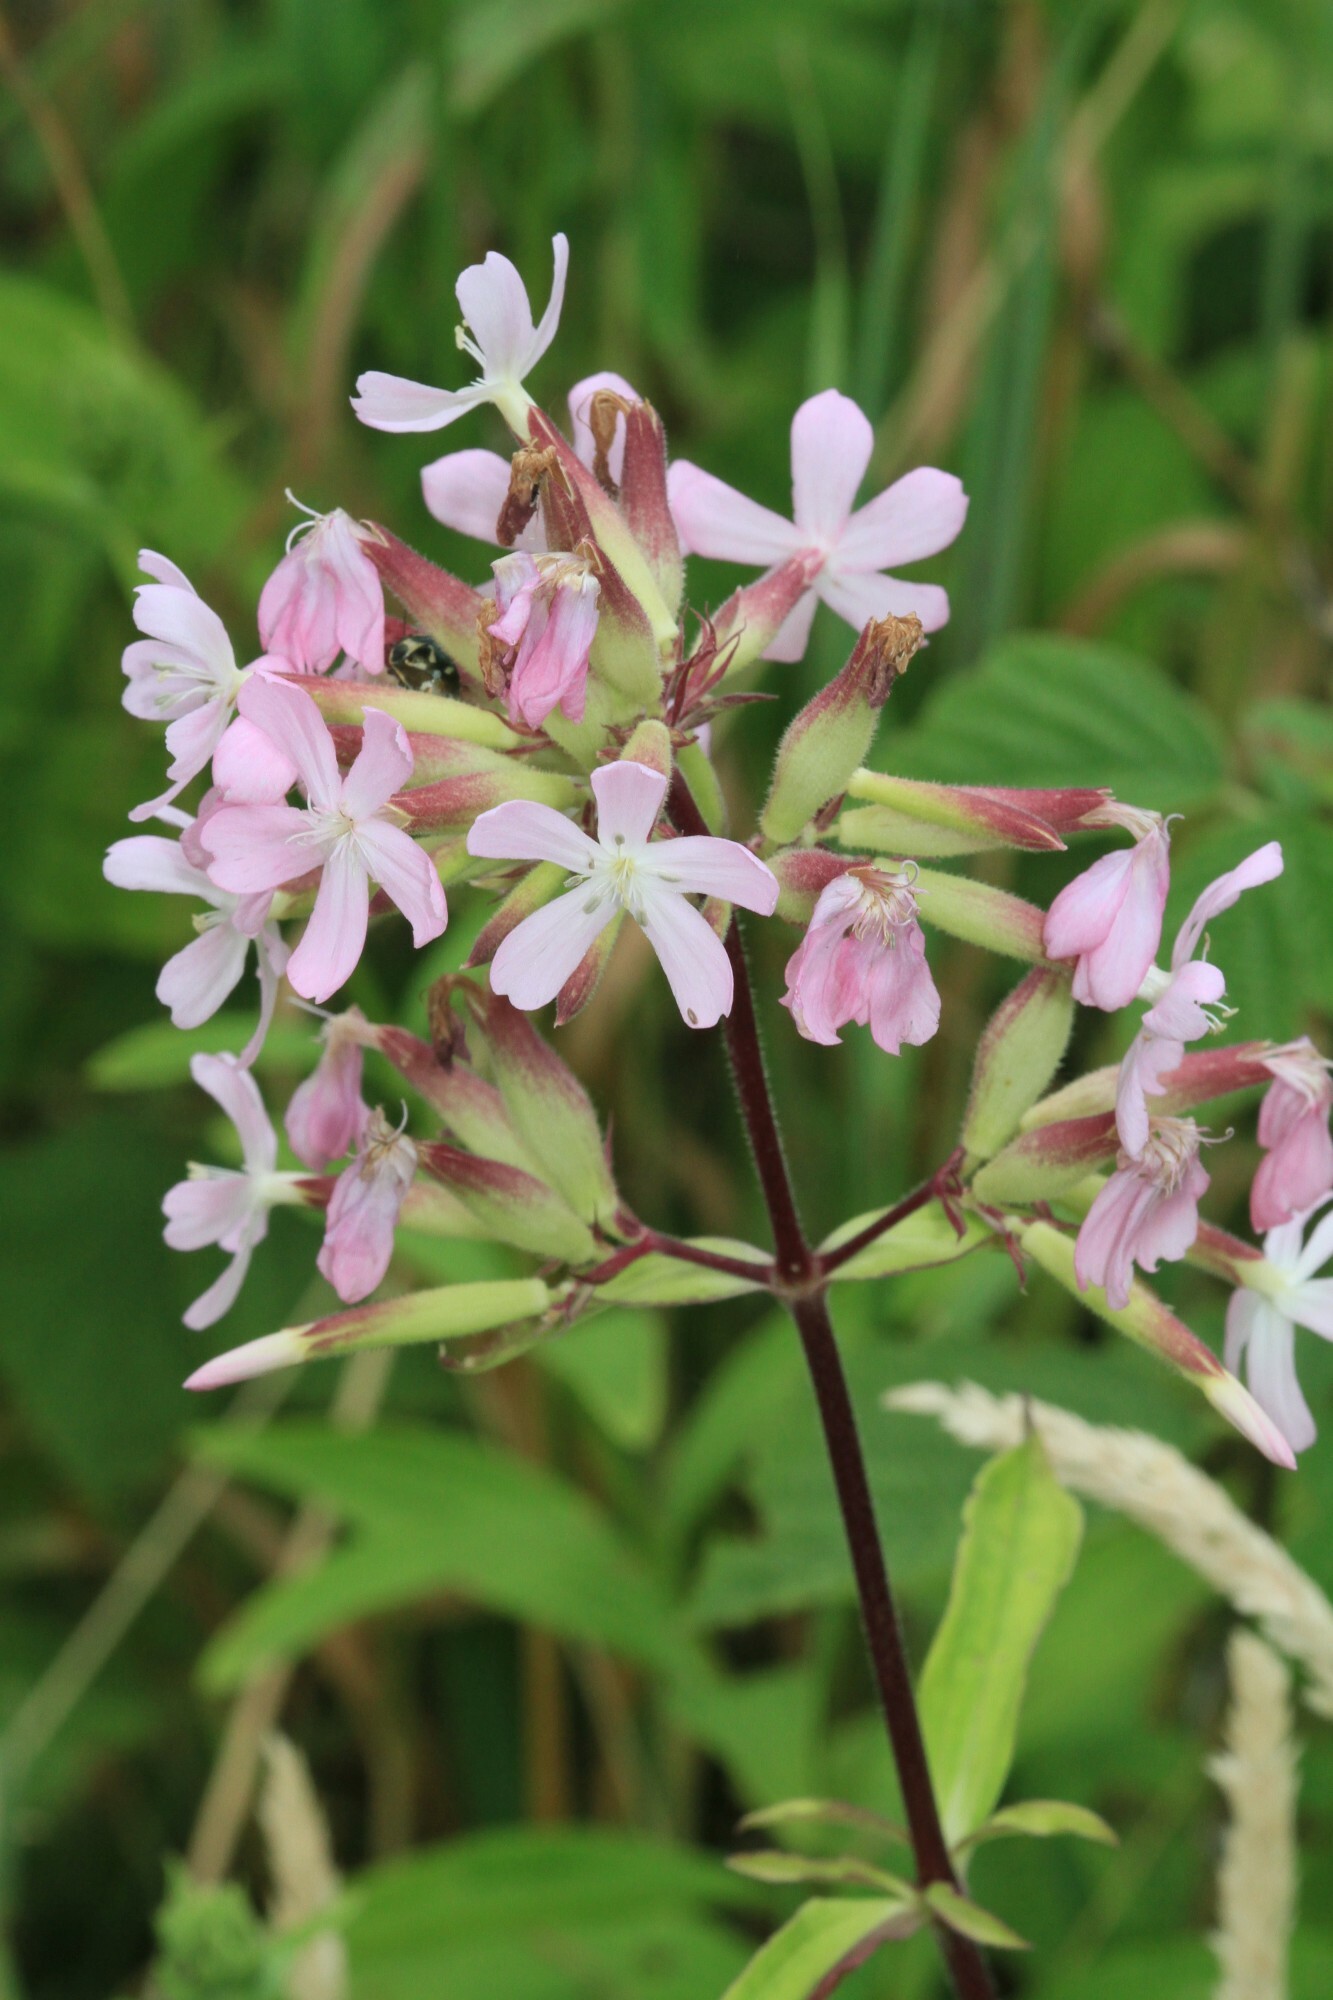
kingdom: Plantae
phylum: Tracheophyta
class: Magnoliopsida
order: Caryophyllales
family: Caryophyllaceae
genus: Saponaria
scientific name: Saponaria officinalis
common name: Soapwort
